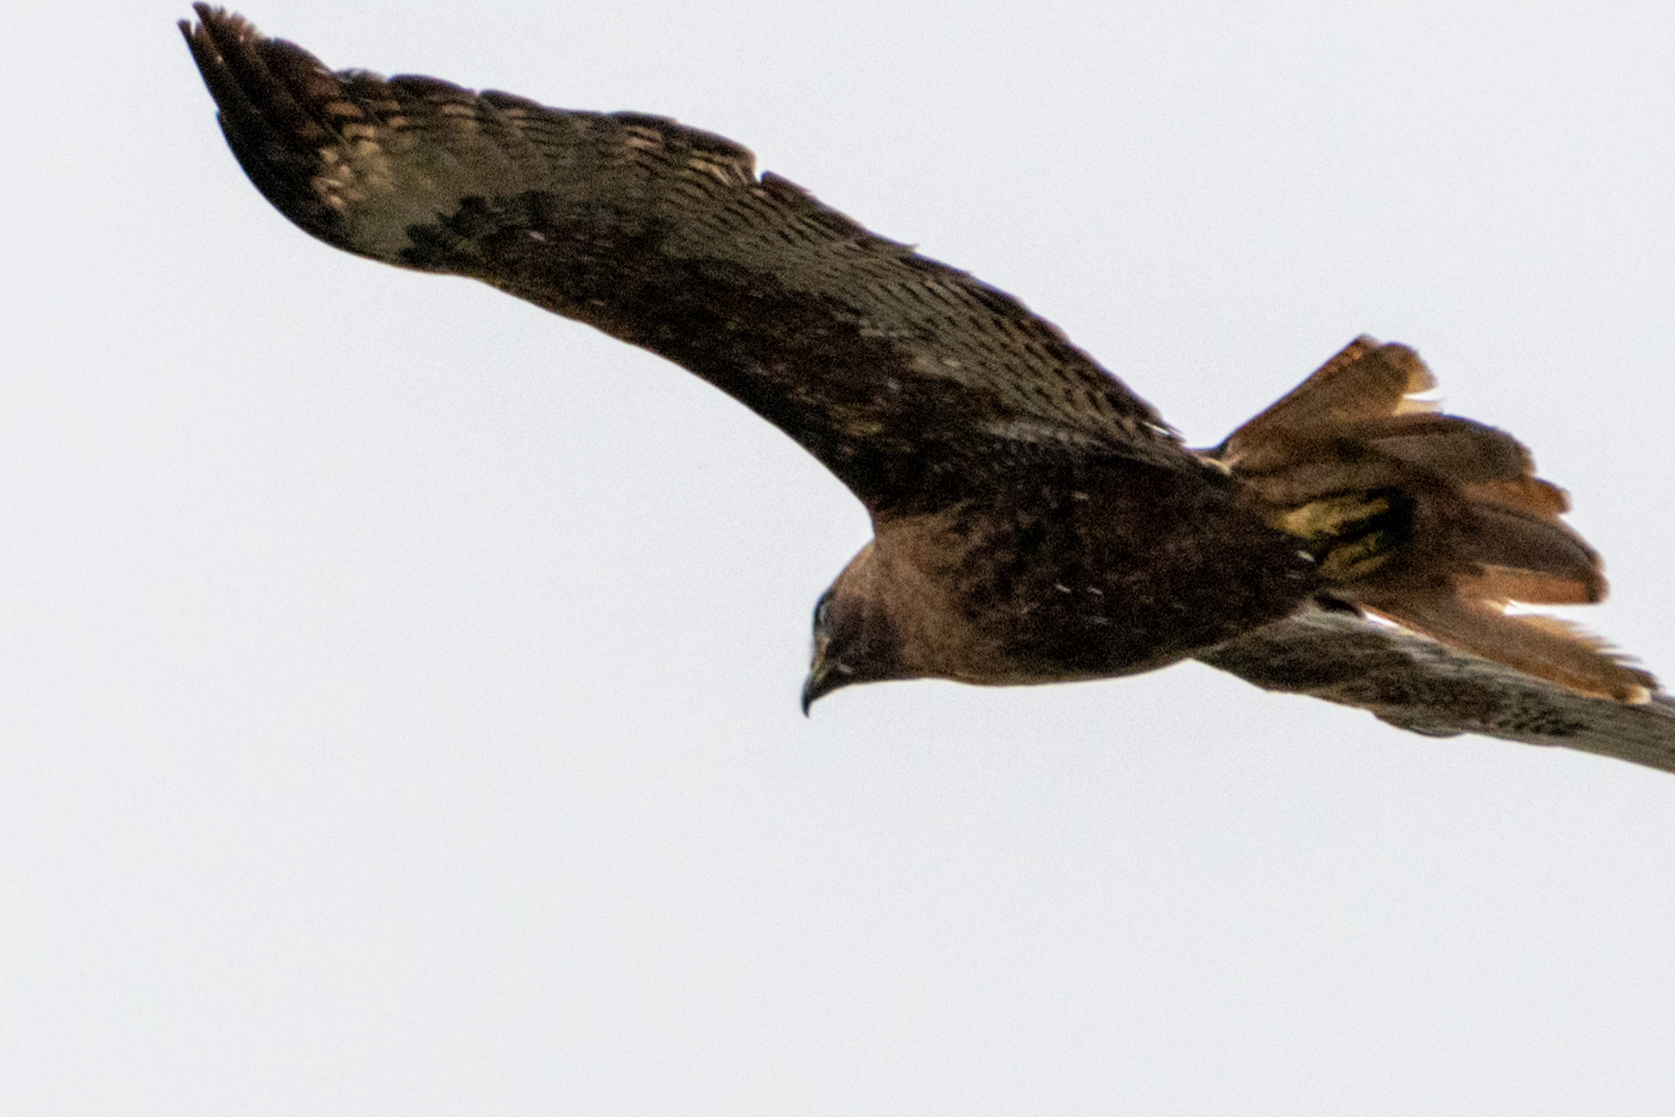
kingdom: Animalia
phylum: Chordata
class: Aves
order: Accipitriformes
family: Accipitridae
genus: Buteo
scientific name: Buteo jamaicensis
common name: Red-tailed hawk
